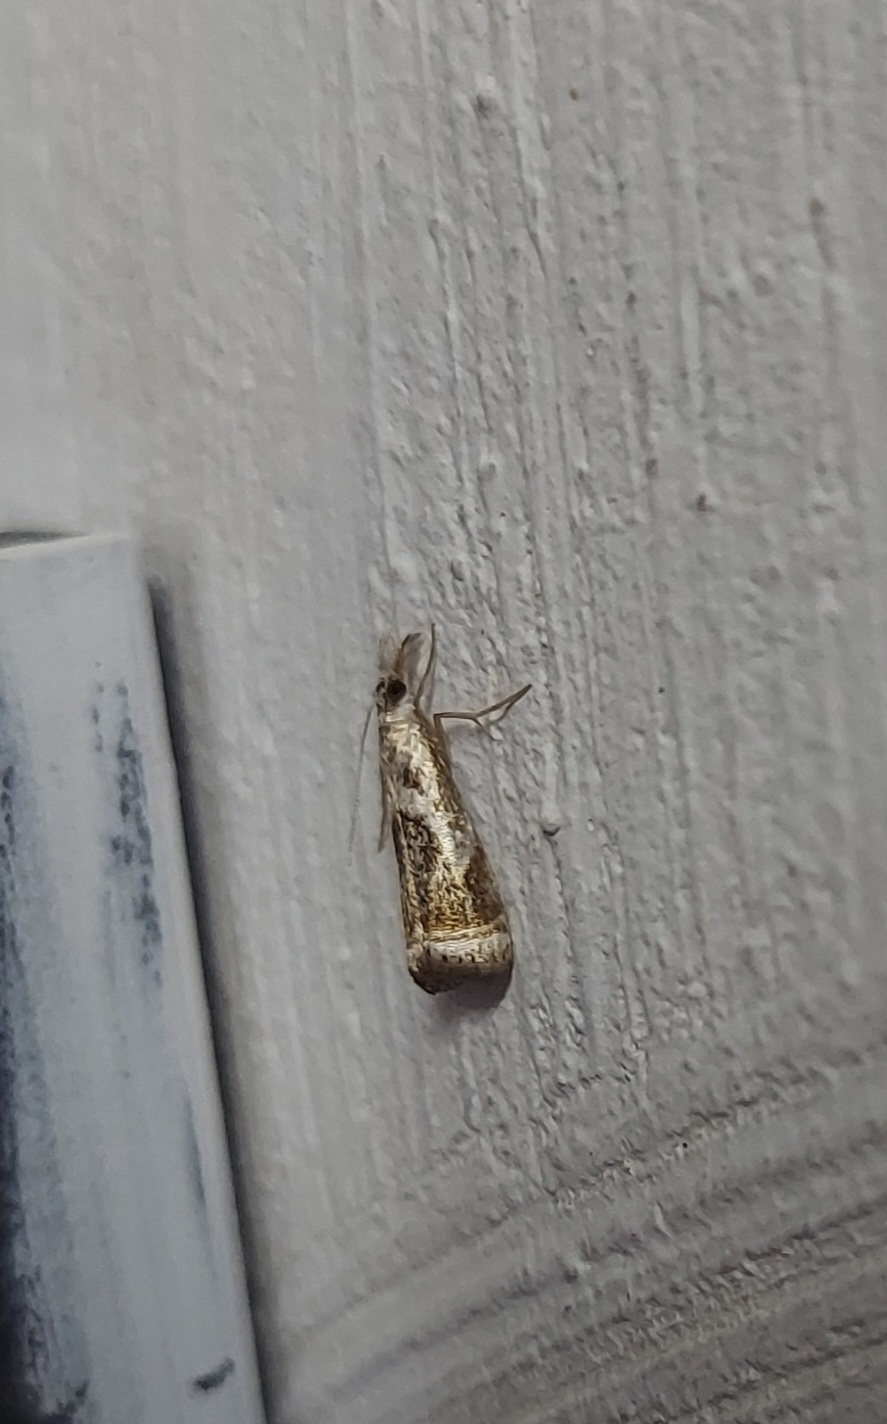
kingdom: Animalia
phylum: Arthropoda
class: Insecta
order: Lepidoptera
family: Crambidae
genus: Microcrambus
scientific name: Microcrambus elegans
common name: Elegant grass-veneer
